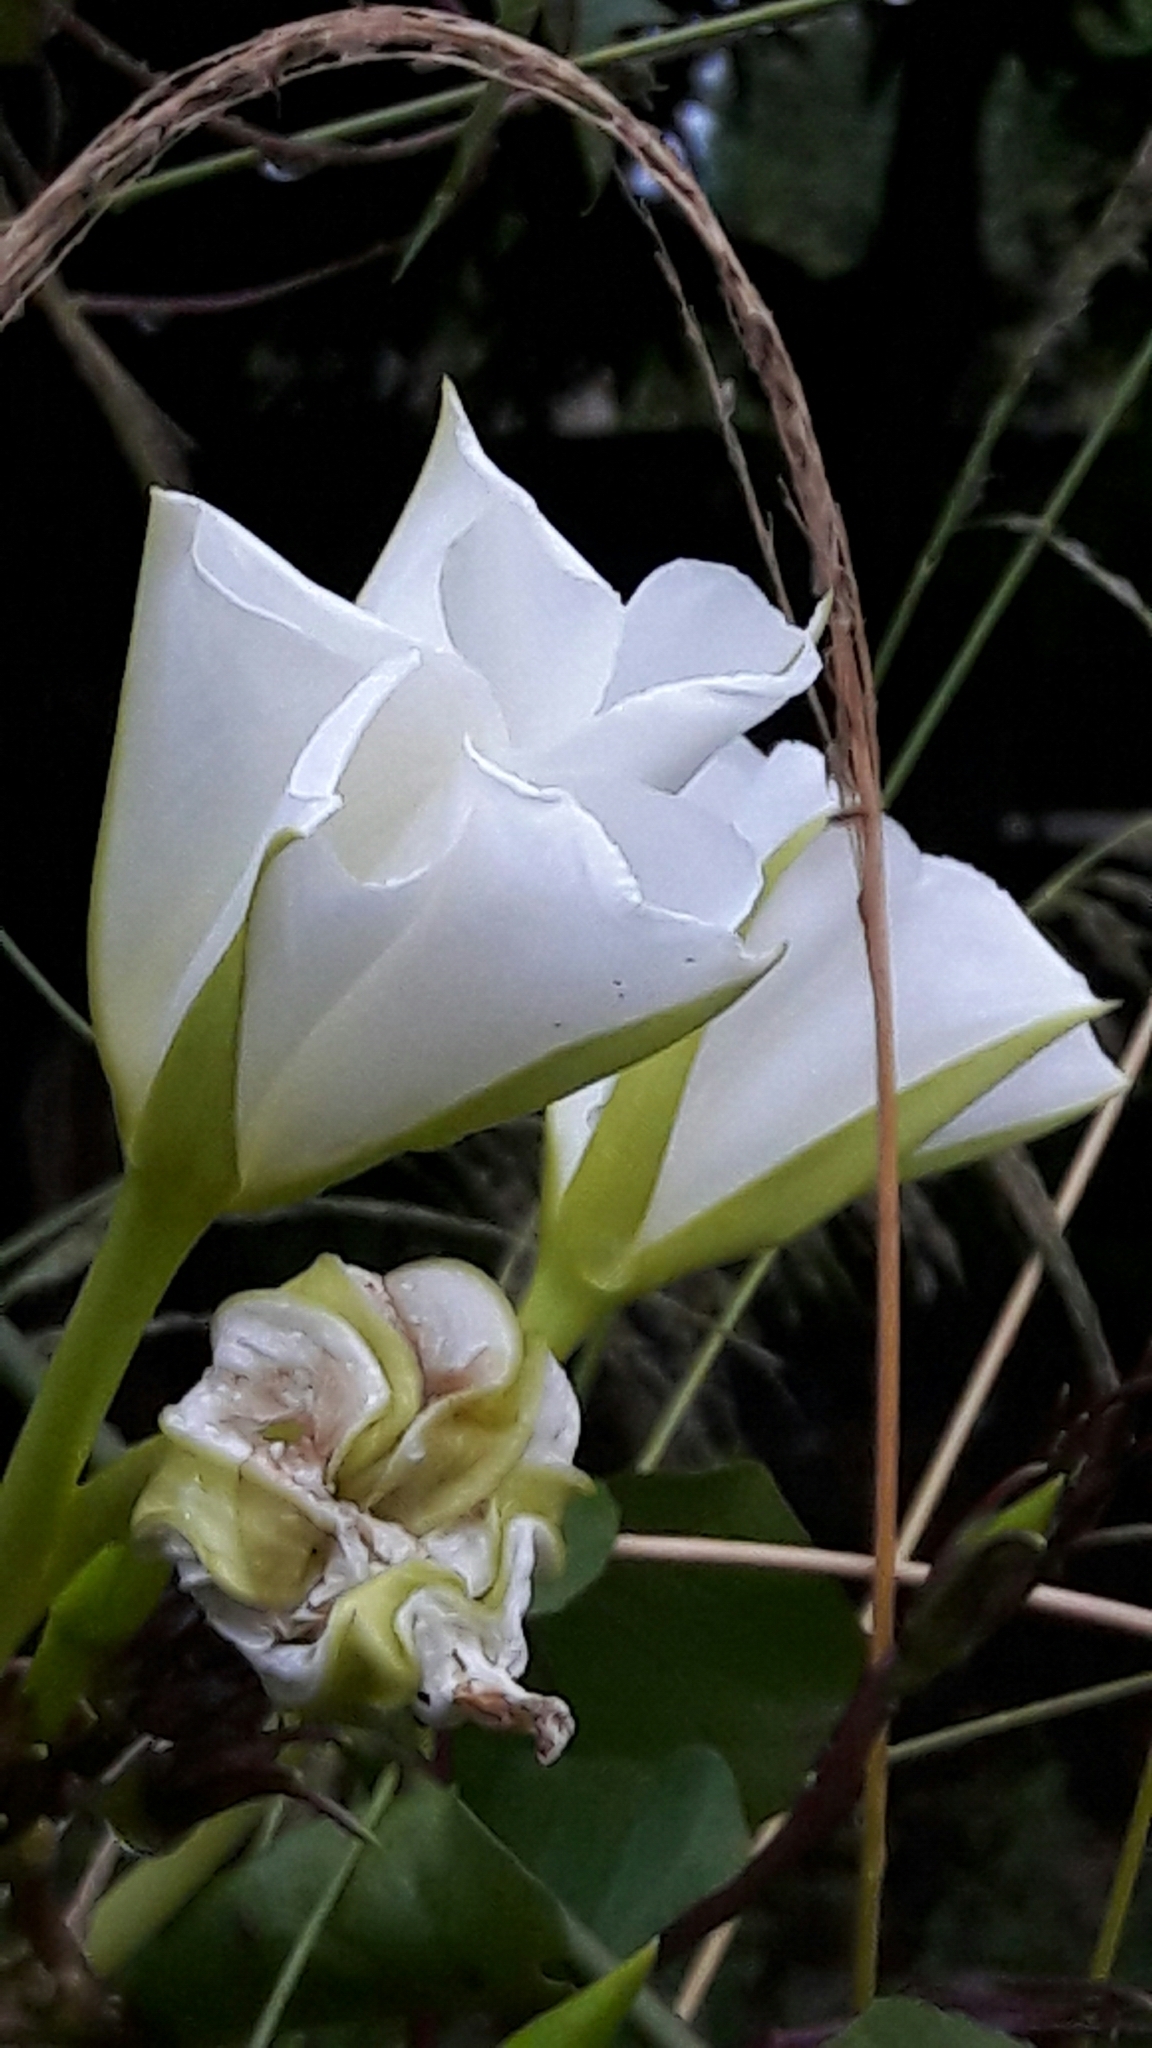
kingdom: Plantae
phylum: Tracheophyta
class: Magnoliopsida
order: Solanales
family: Convolvulaceae
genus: Ipomoea
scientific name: Ipomoea alba
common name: Moonflower
